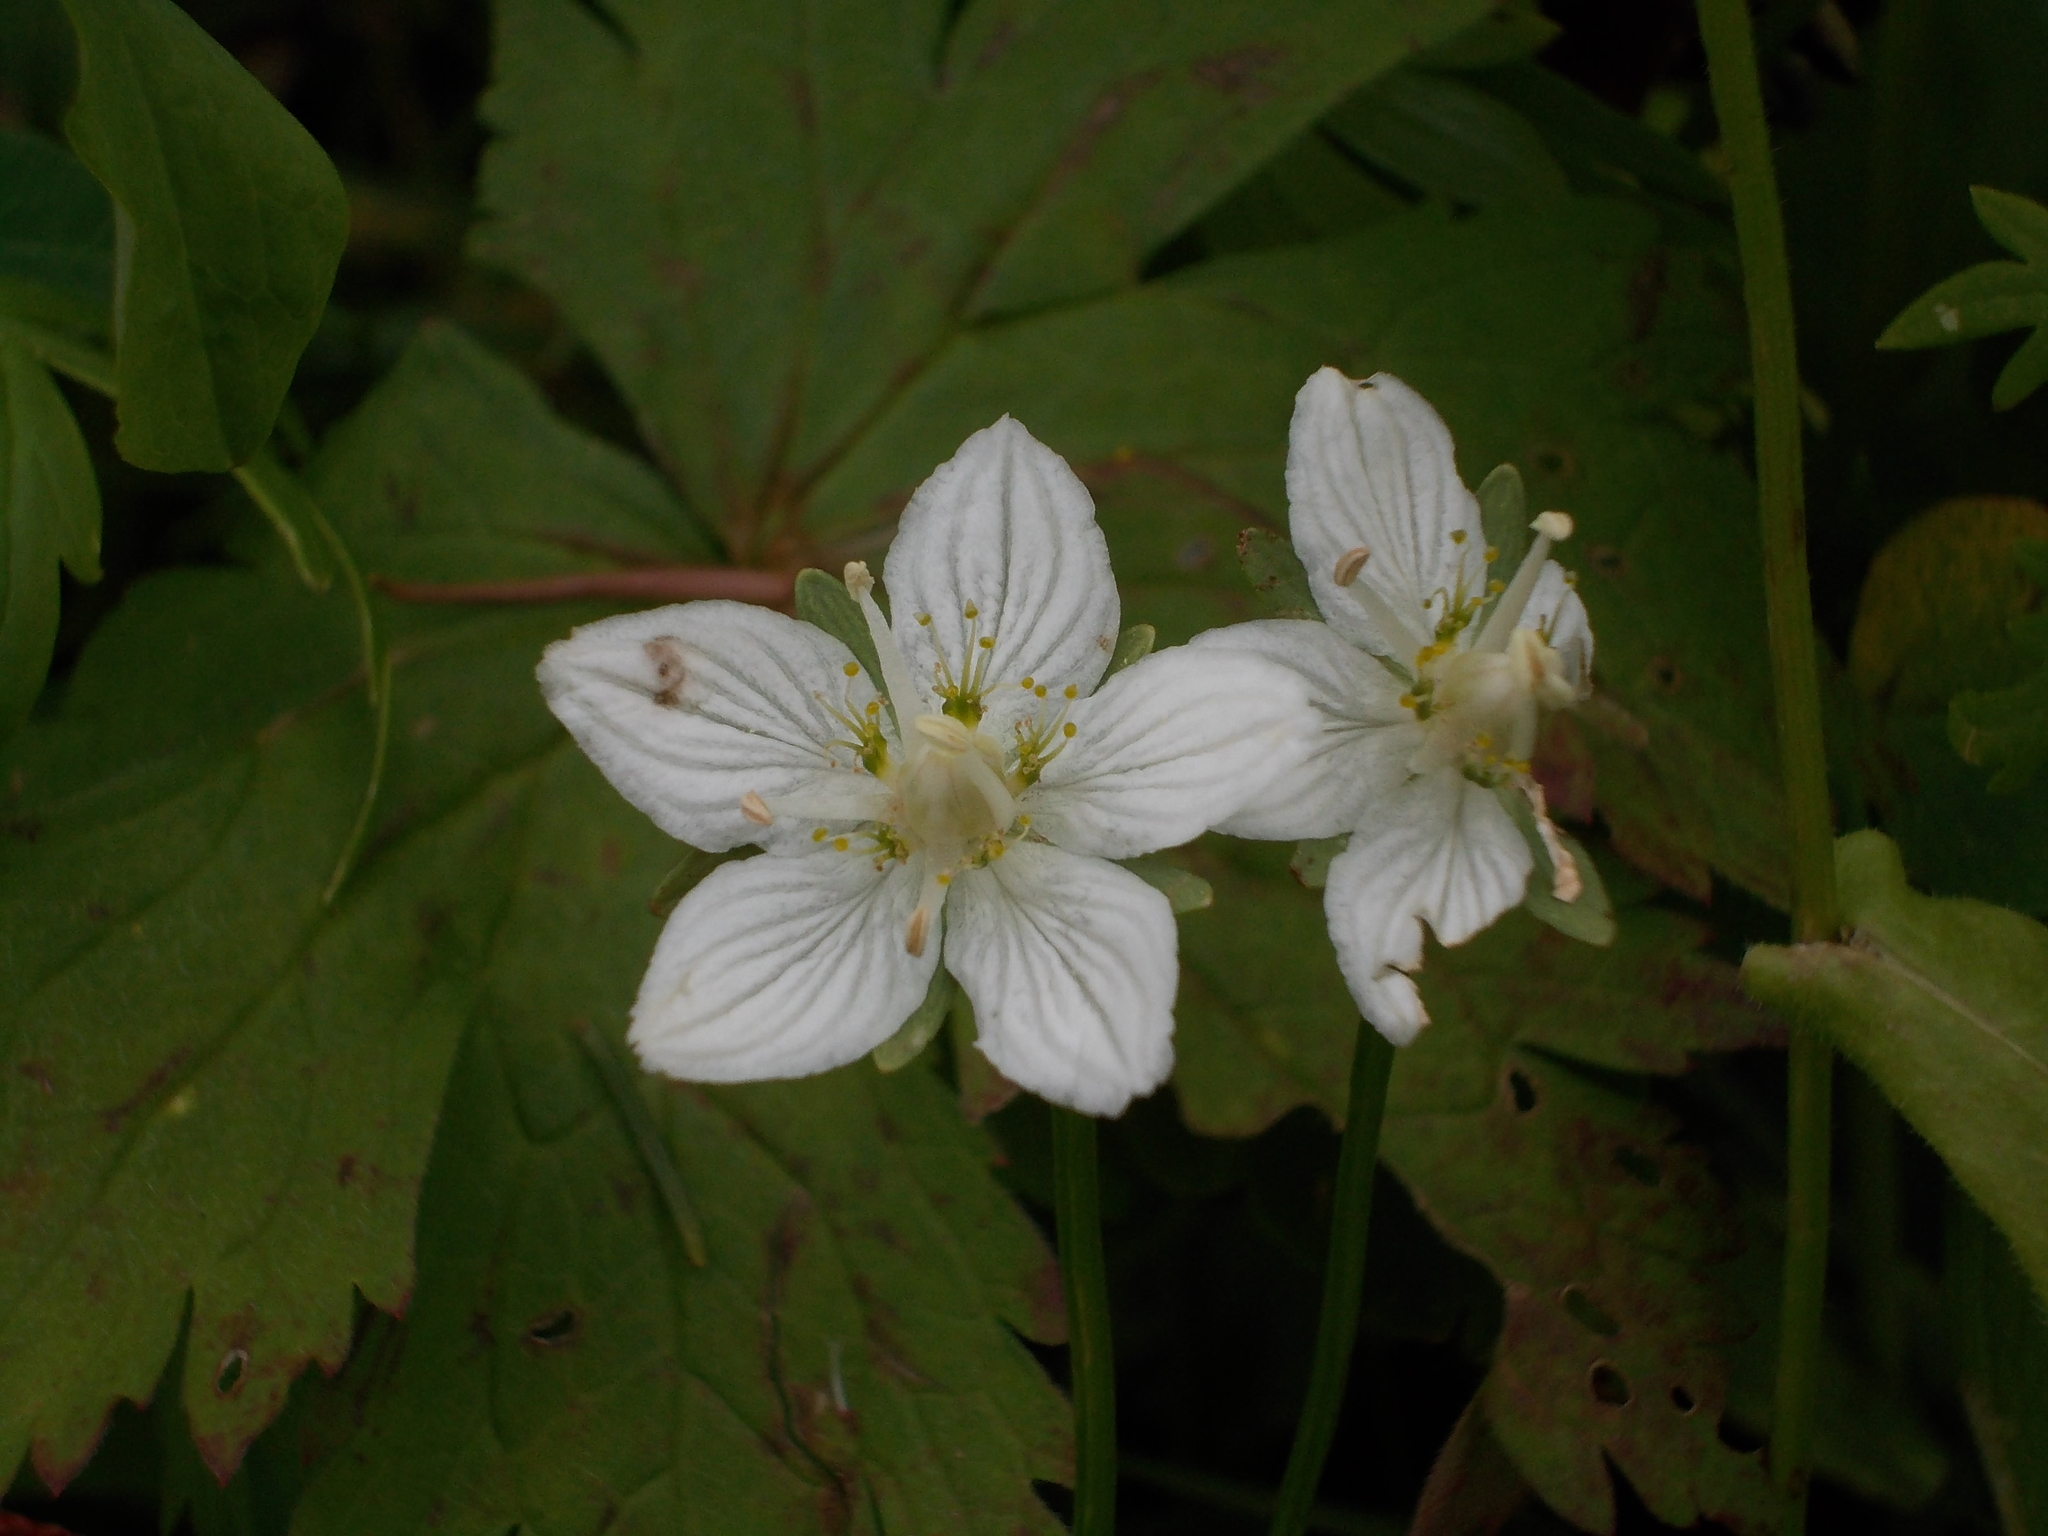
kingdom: Plantae
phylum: Tracheophyta
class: Magnoliopsida
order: Celastrales
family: Parnassiaceae
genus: Parnassia
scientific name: Parnassia palustris
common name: Grass-of-parnassus
